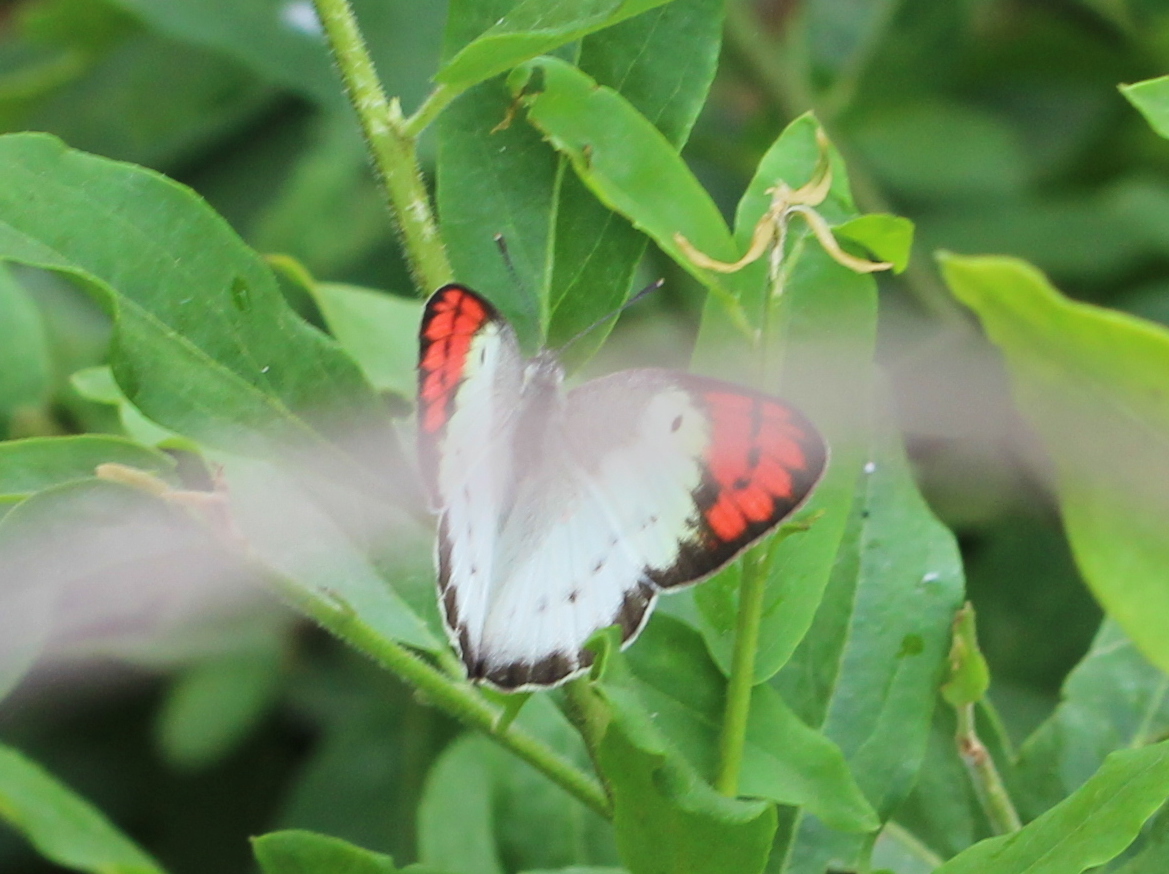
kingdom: Animalia
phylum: Arthropoda
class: Insecta
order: Lepidoptera
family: Pieridae
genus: Colotis
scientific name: Colotis danae
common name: Crimson tip
